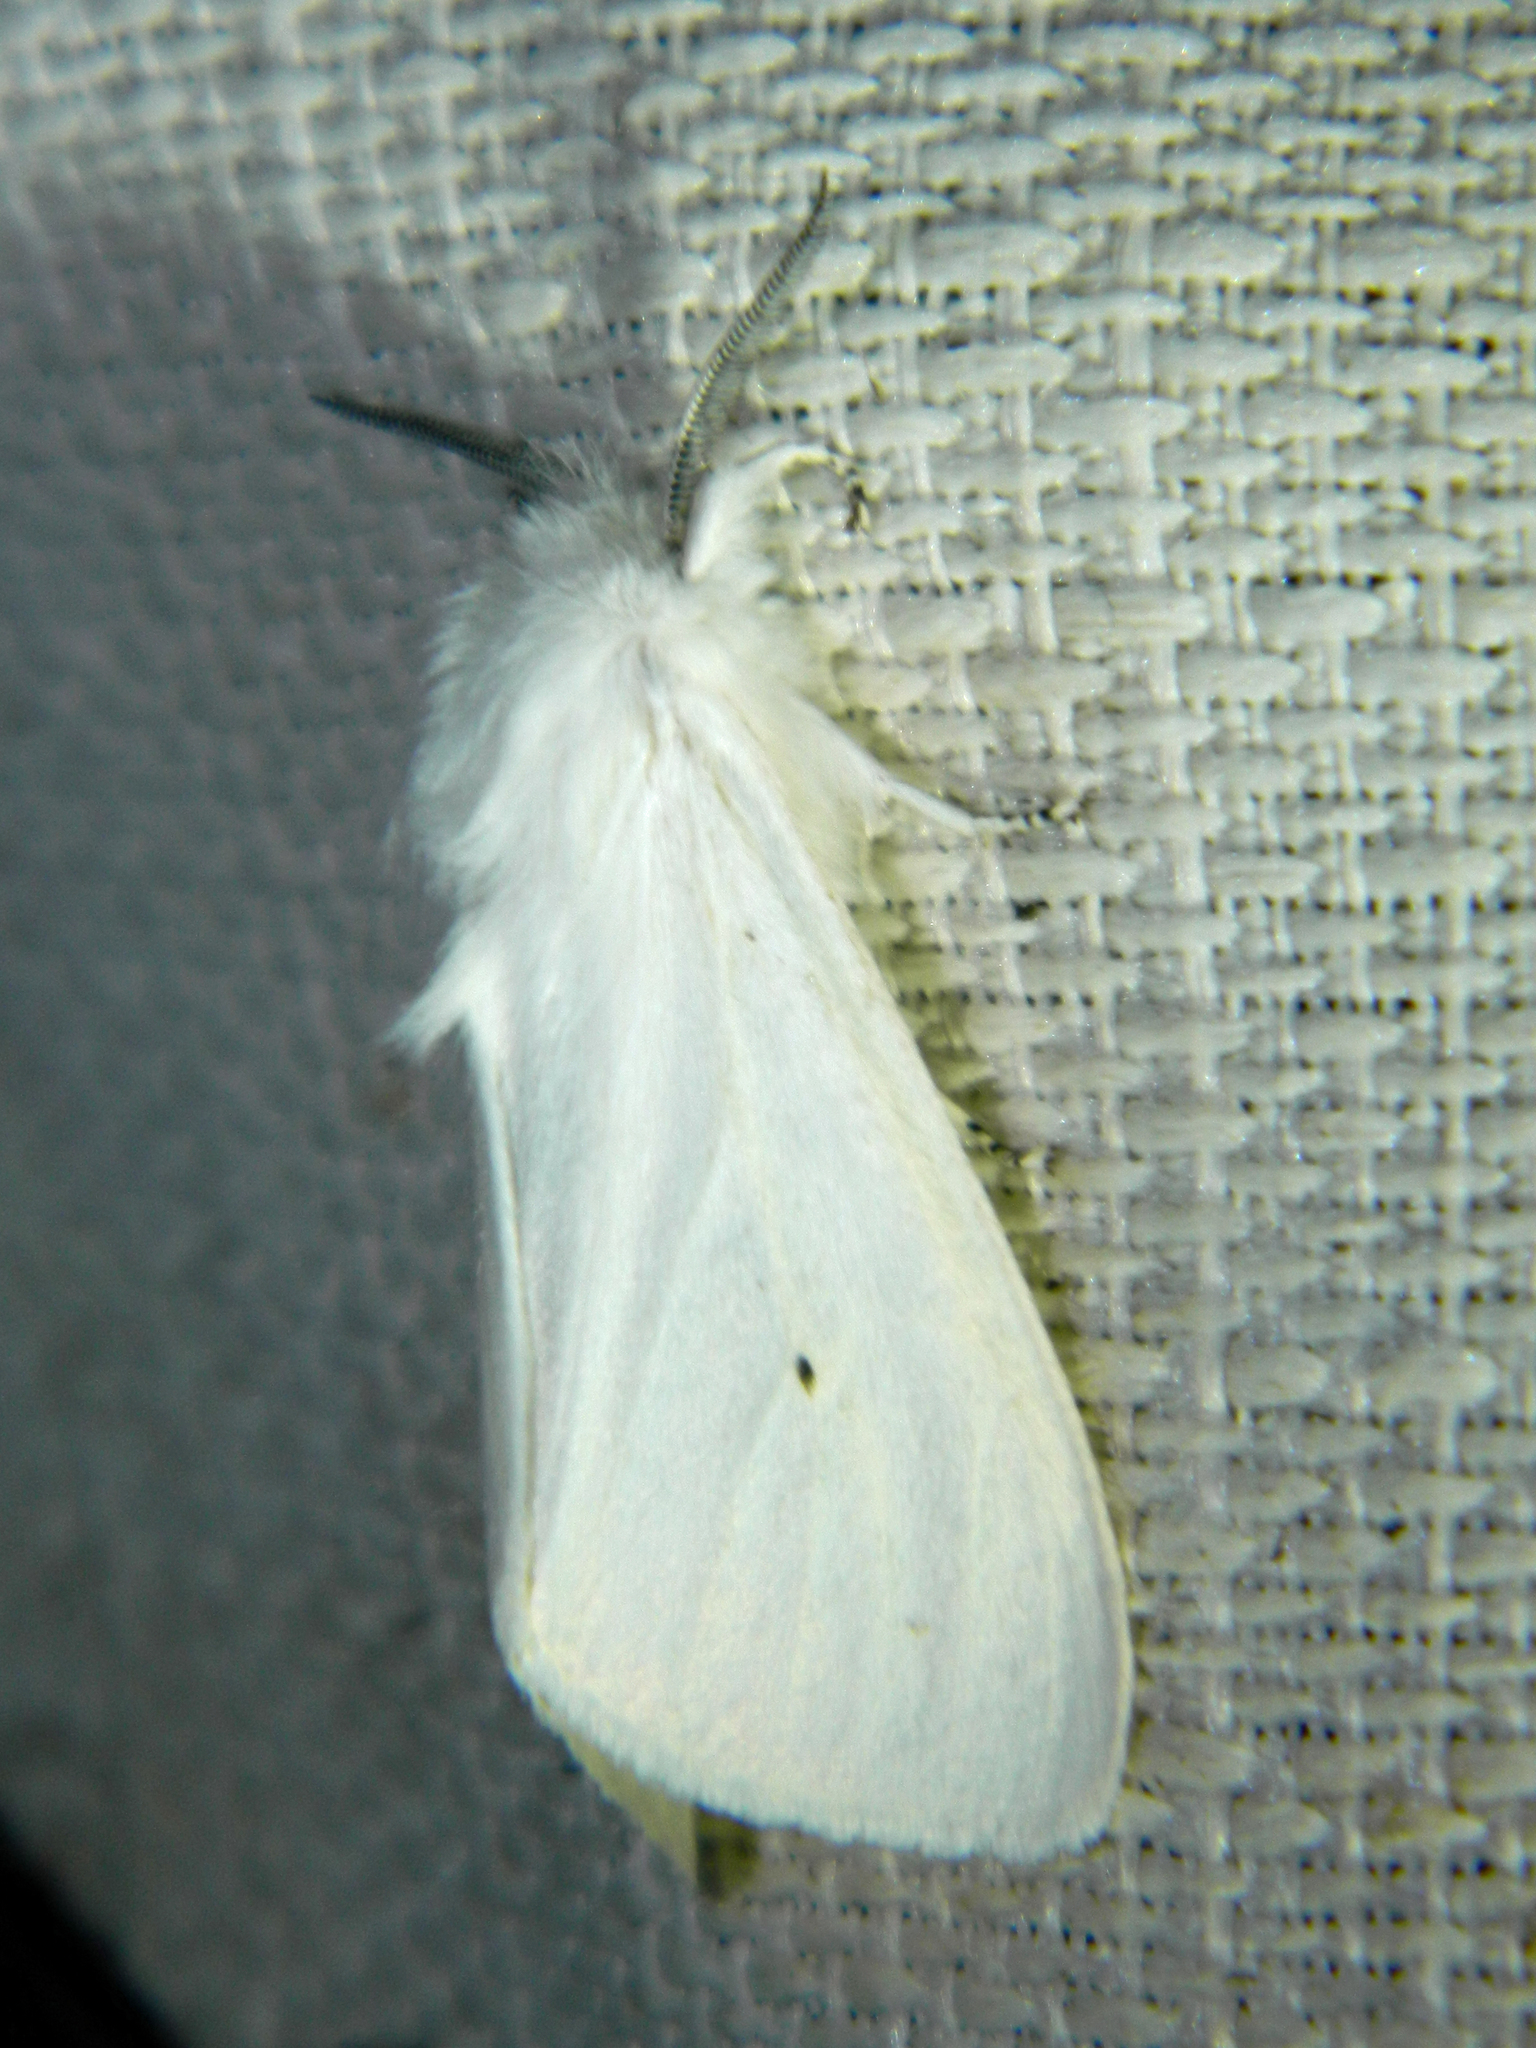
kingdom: Animalia
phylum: Arthropoda
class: Insecta
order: Lepidoptera
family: Erebidae
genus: Spilosoma
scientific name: Spilosoma virginica
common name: Virginia tiger moth
